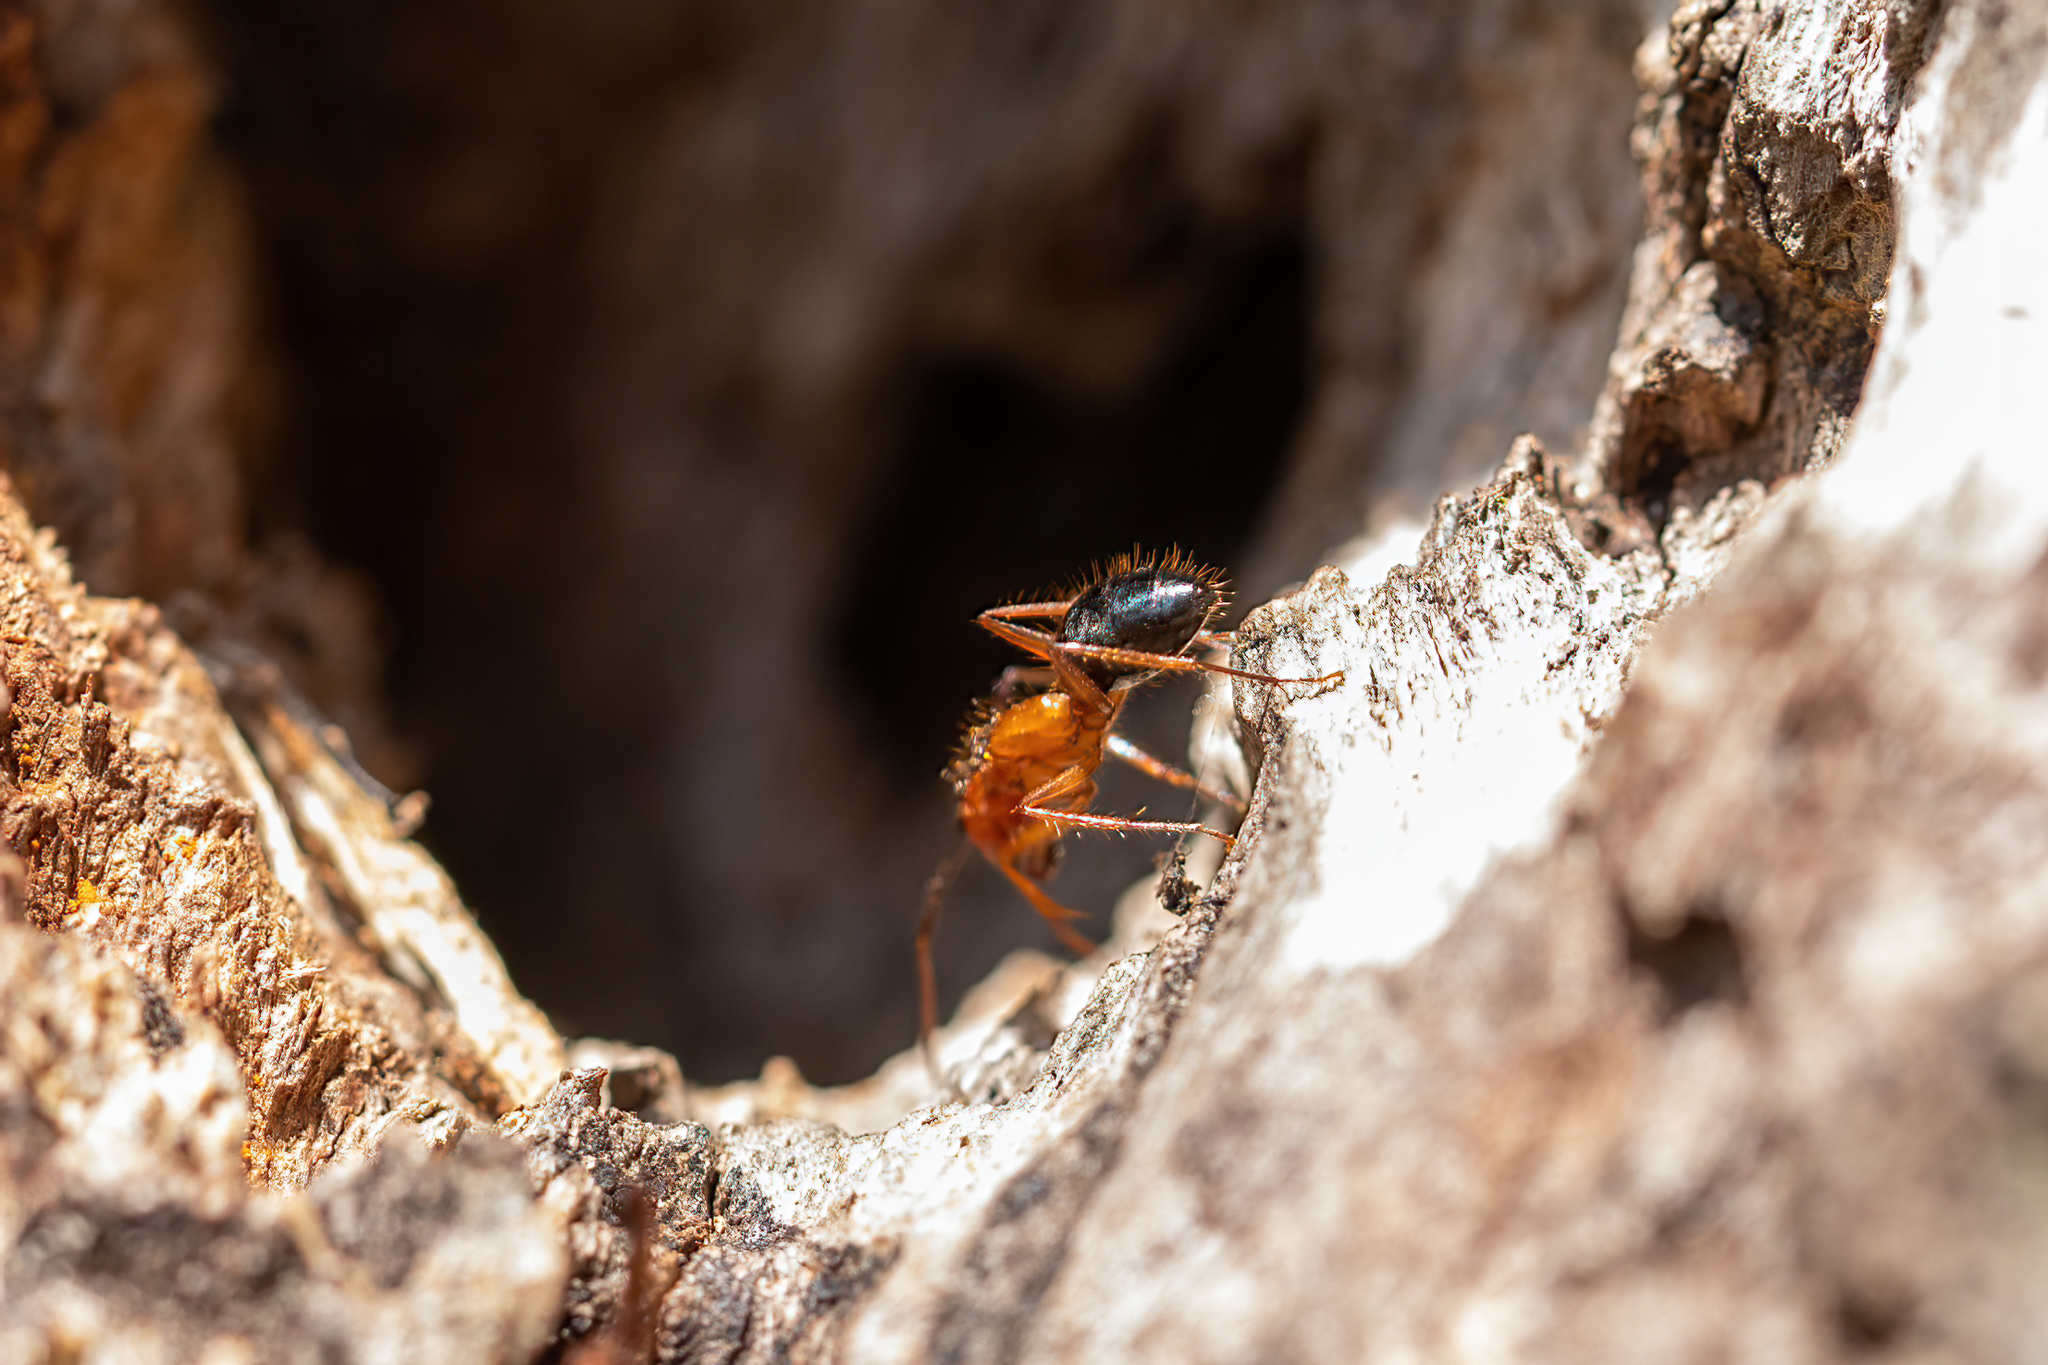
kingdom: Animalia
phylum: Arthropoda
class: Insecta
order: Hymenoptera
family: Formicidae
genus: Camponotus
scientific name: Camponotus floridanus
